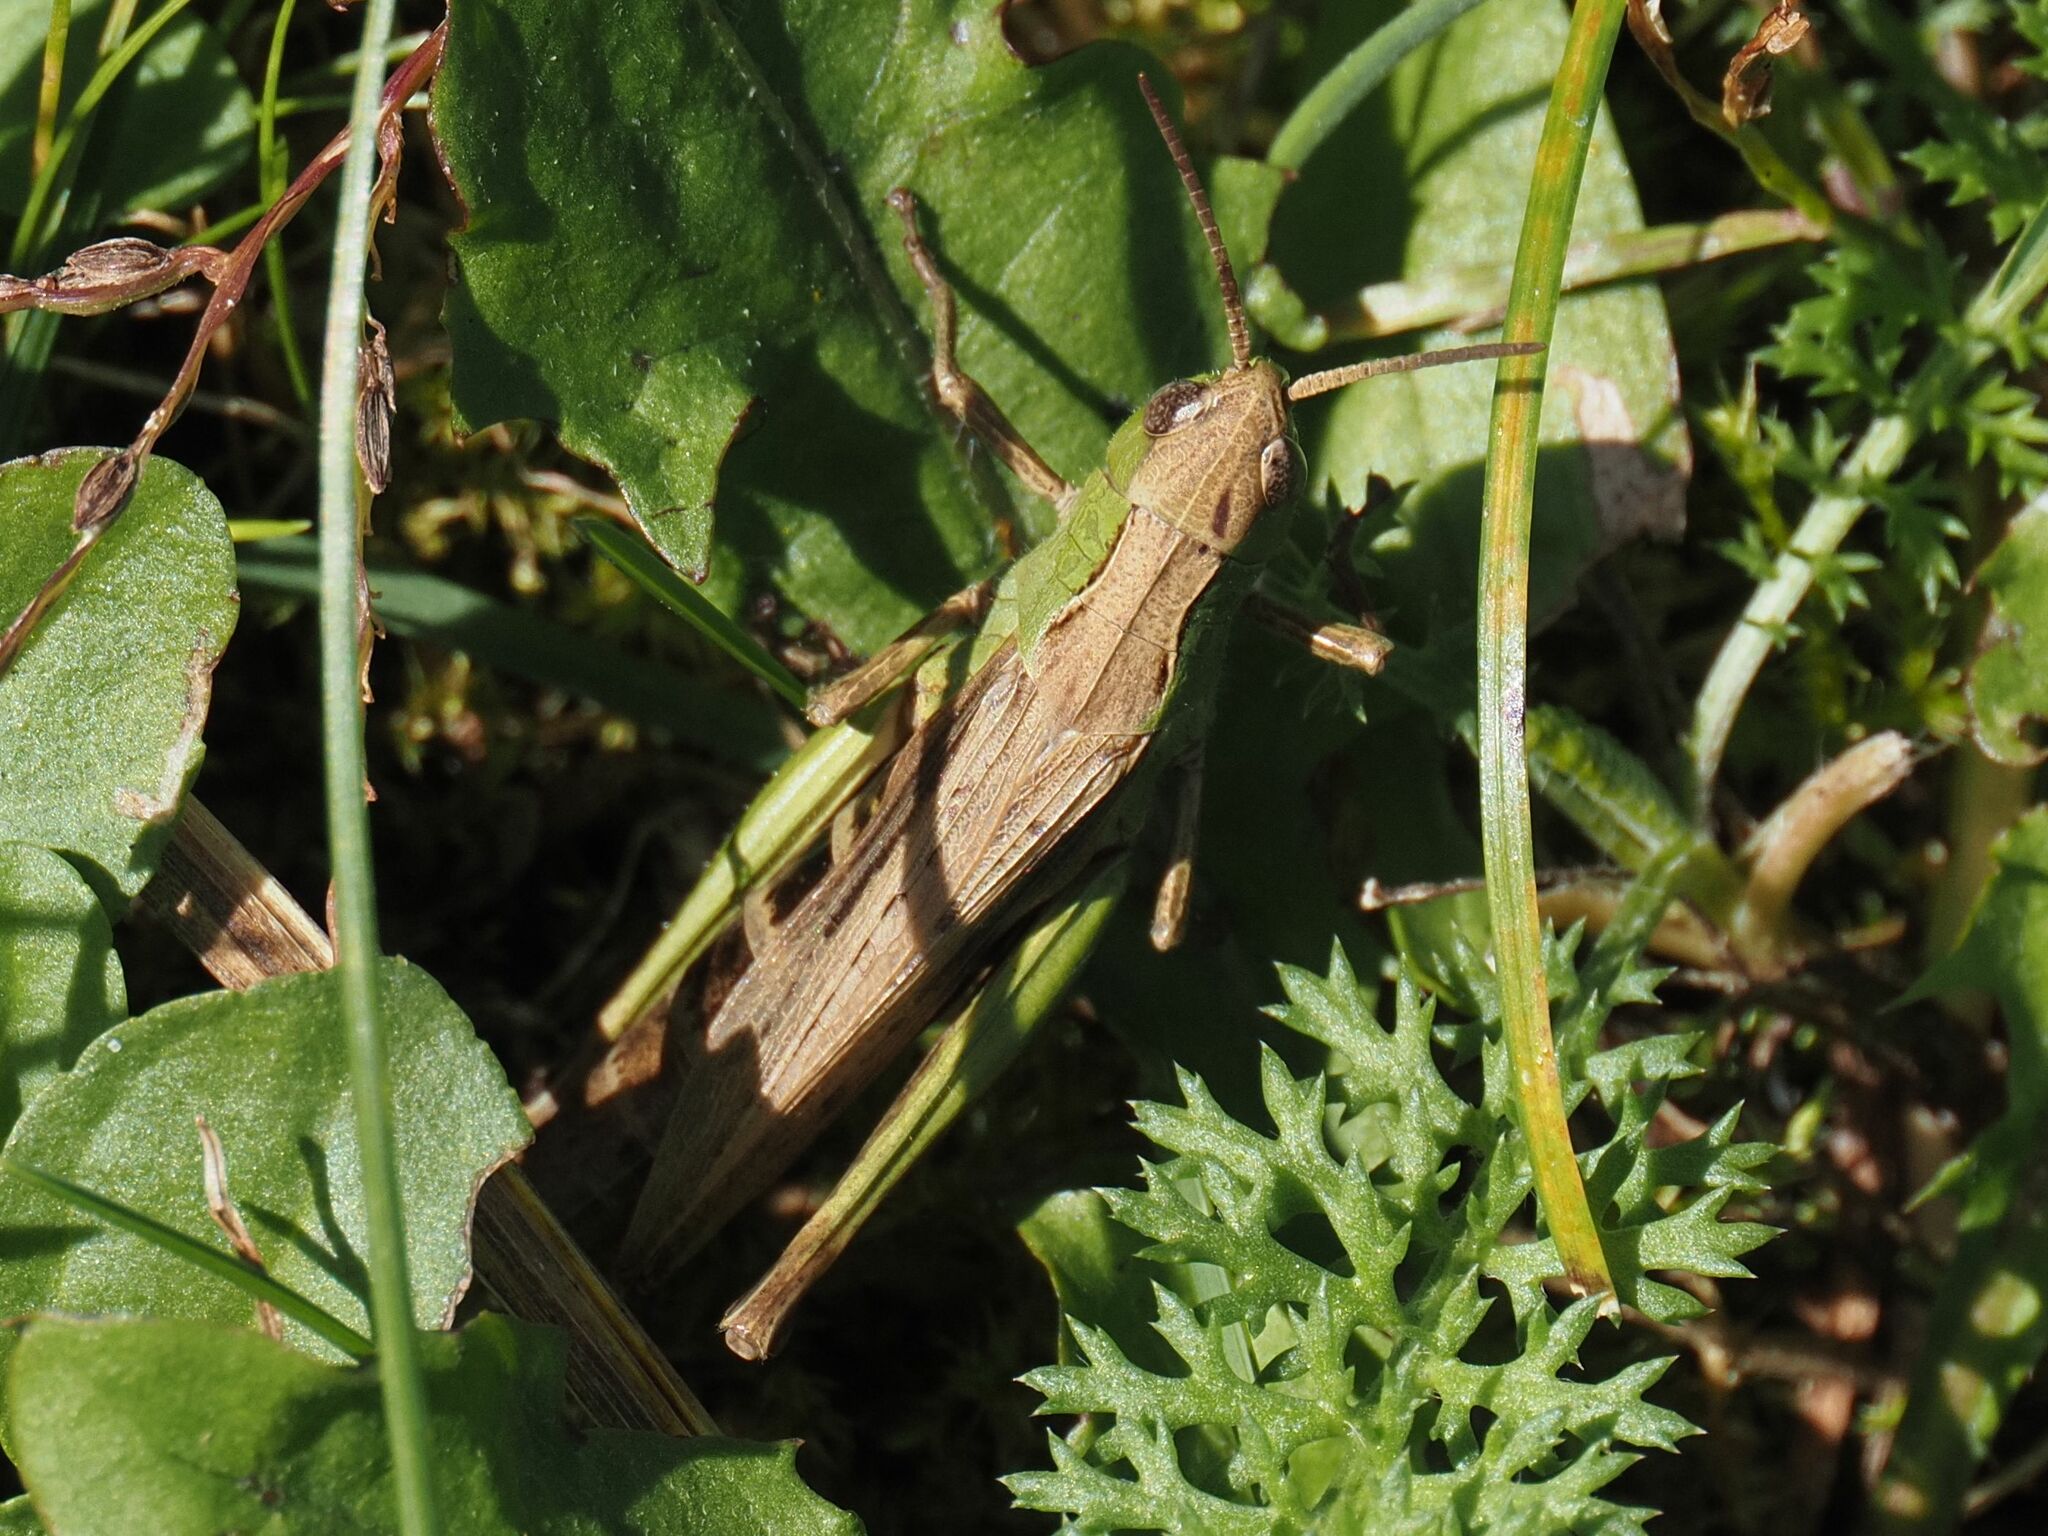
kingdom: Animalia
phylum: Arthropoda
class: Insecta
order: Orthoptera
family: Acrididae
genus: Chorthippus
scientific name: Chorthippus dorsatus
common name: Steppe grasshopper
